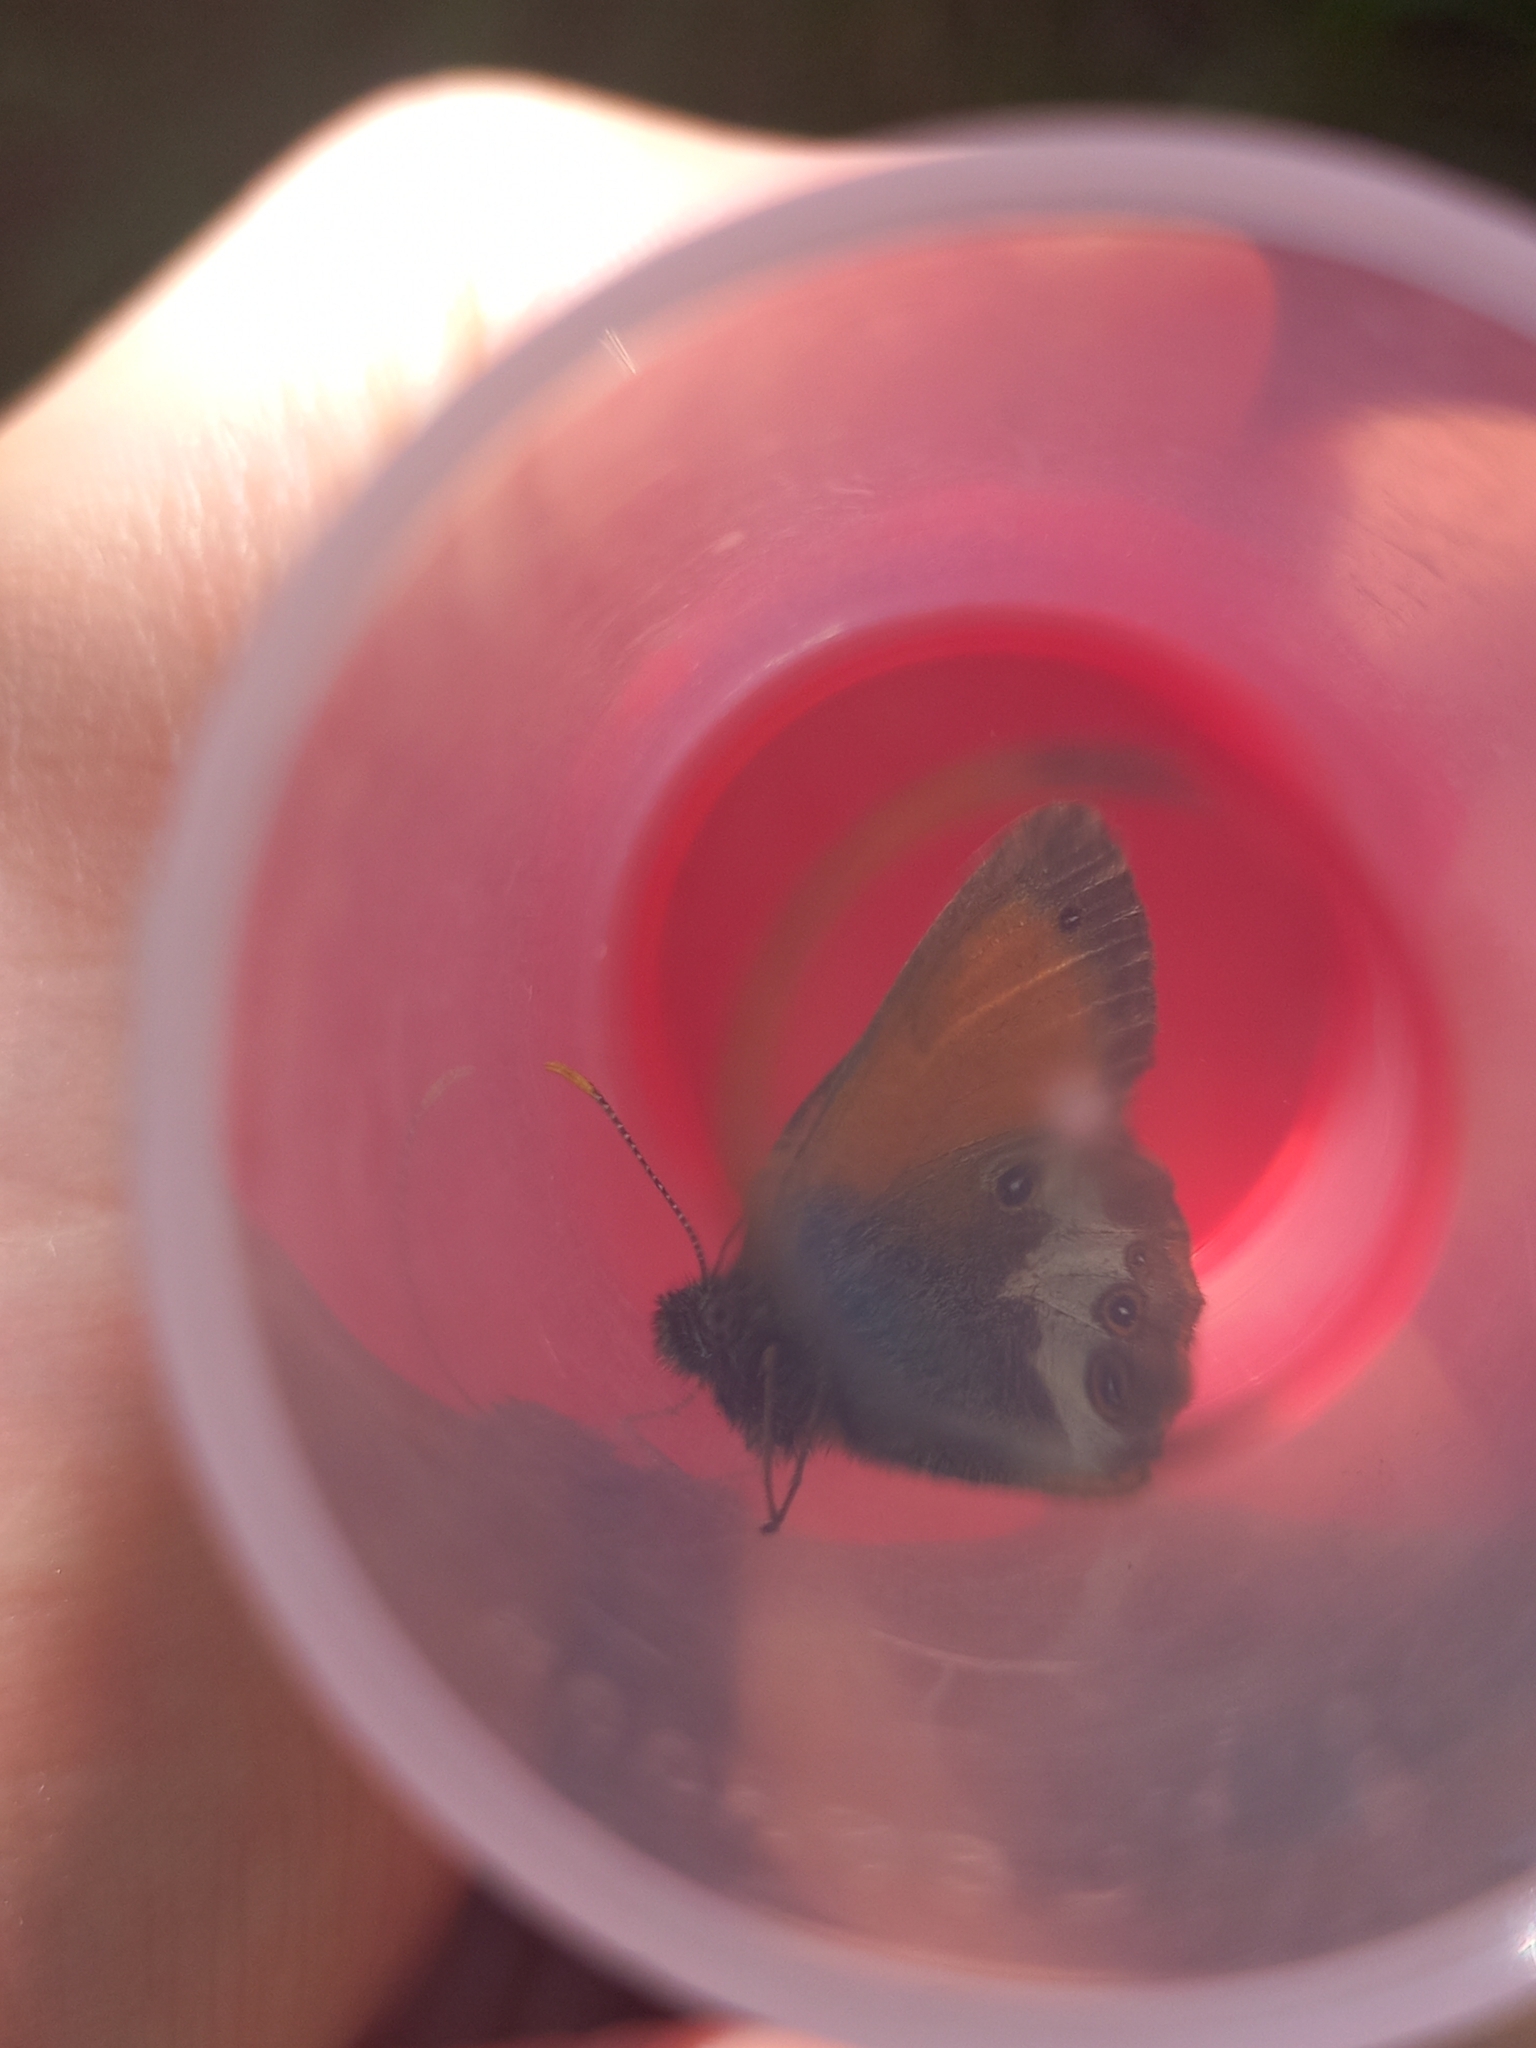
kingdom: Animalia
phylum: Arthropoda
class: Insecta
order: Lepidoptera
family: Nymphalidae
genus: Coenonympha
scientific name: Coenonympha arcania
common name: Pearly heath
